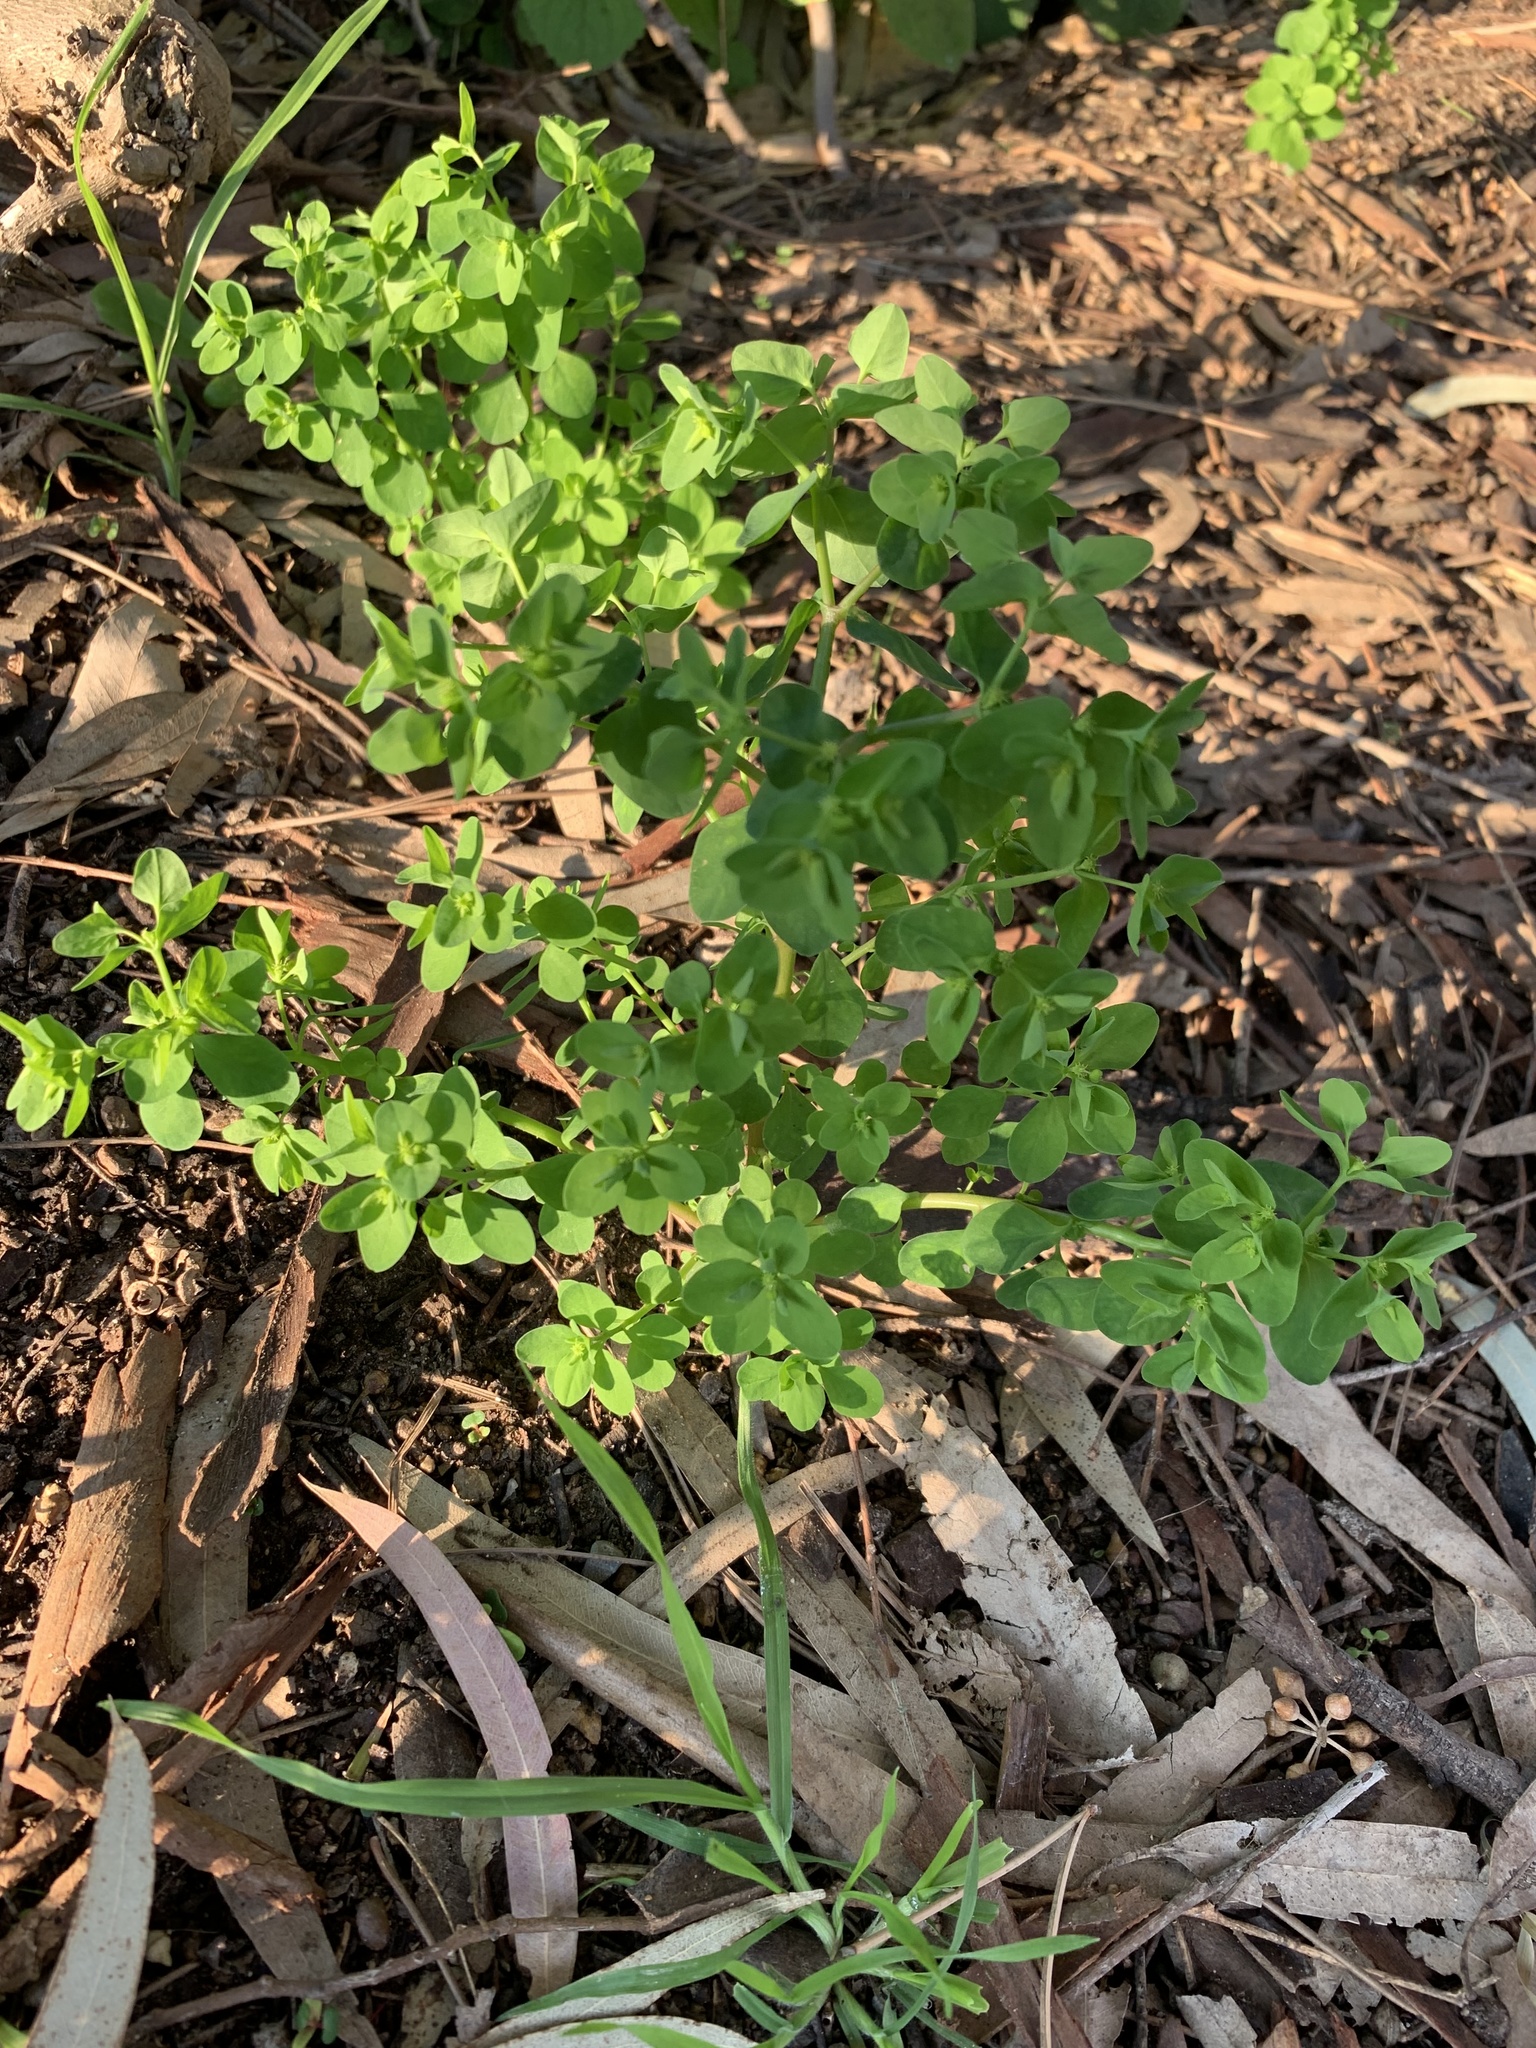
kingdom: Plantae
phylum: Tracheophyta
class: Magnoliopsida
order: Malpighiales
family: Euphorbiaceae
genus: Euphorbia
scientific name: Euphorbia peplus
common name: Petty spurge
